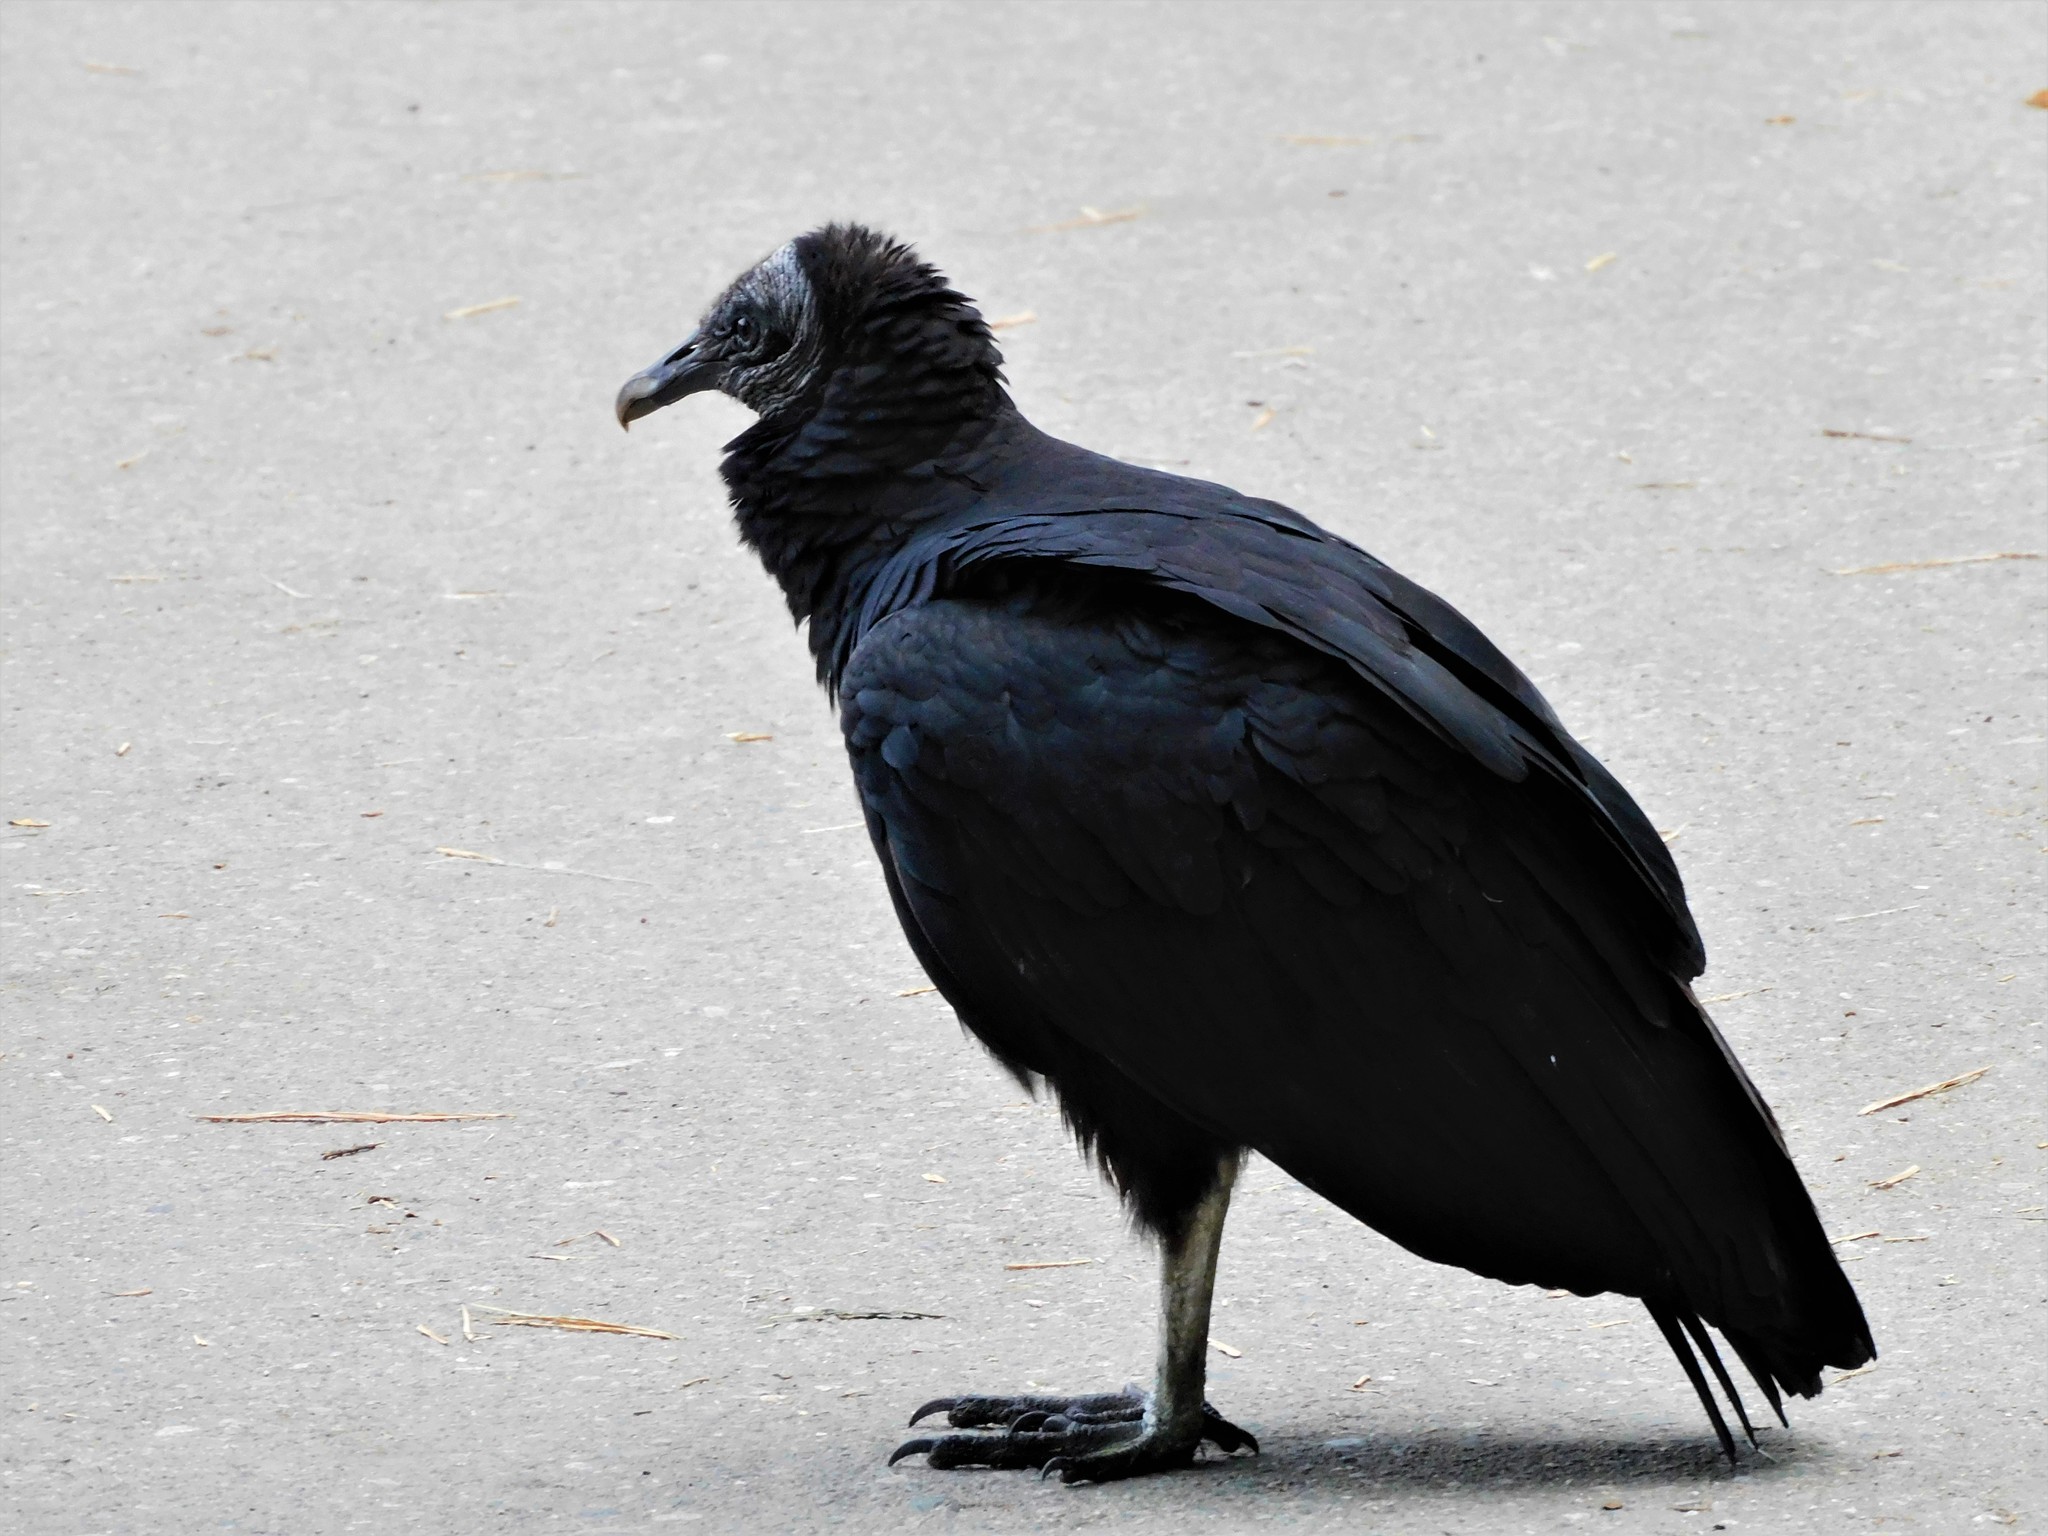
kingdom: Animalia
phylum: Chordata
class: Aves
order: Accipitriformes
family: Cathartidae
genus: Coragyps
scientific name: Coragyps atratus
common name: Black vulture
